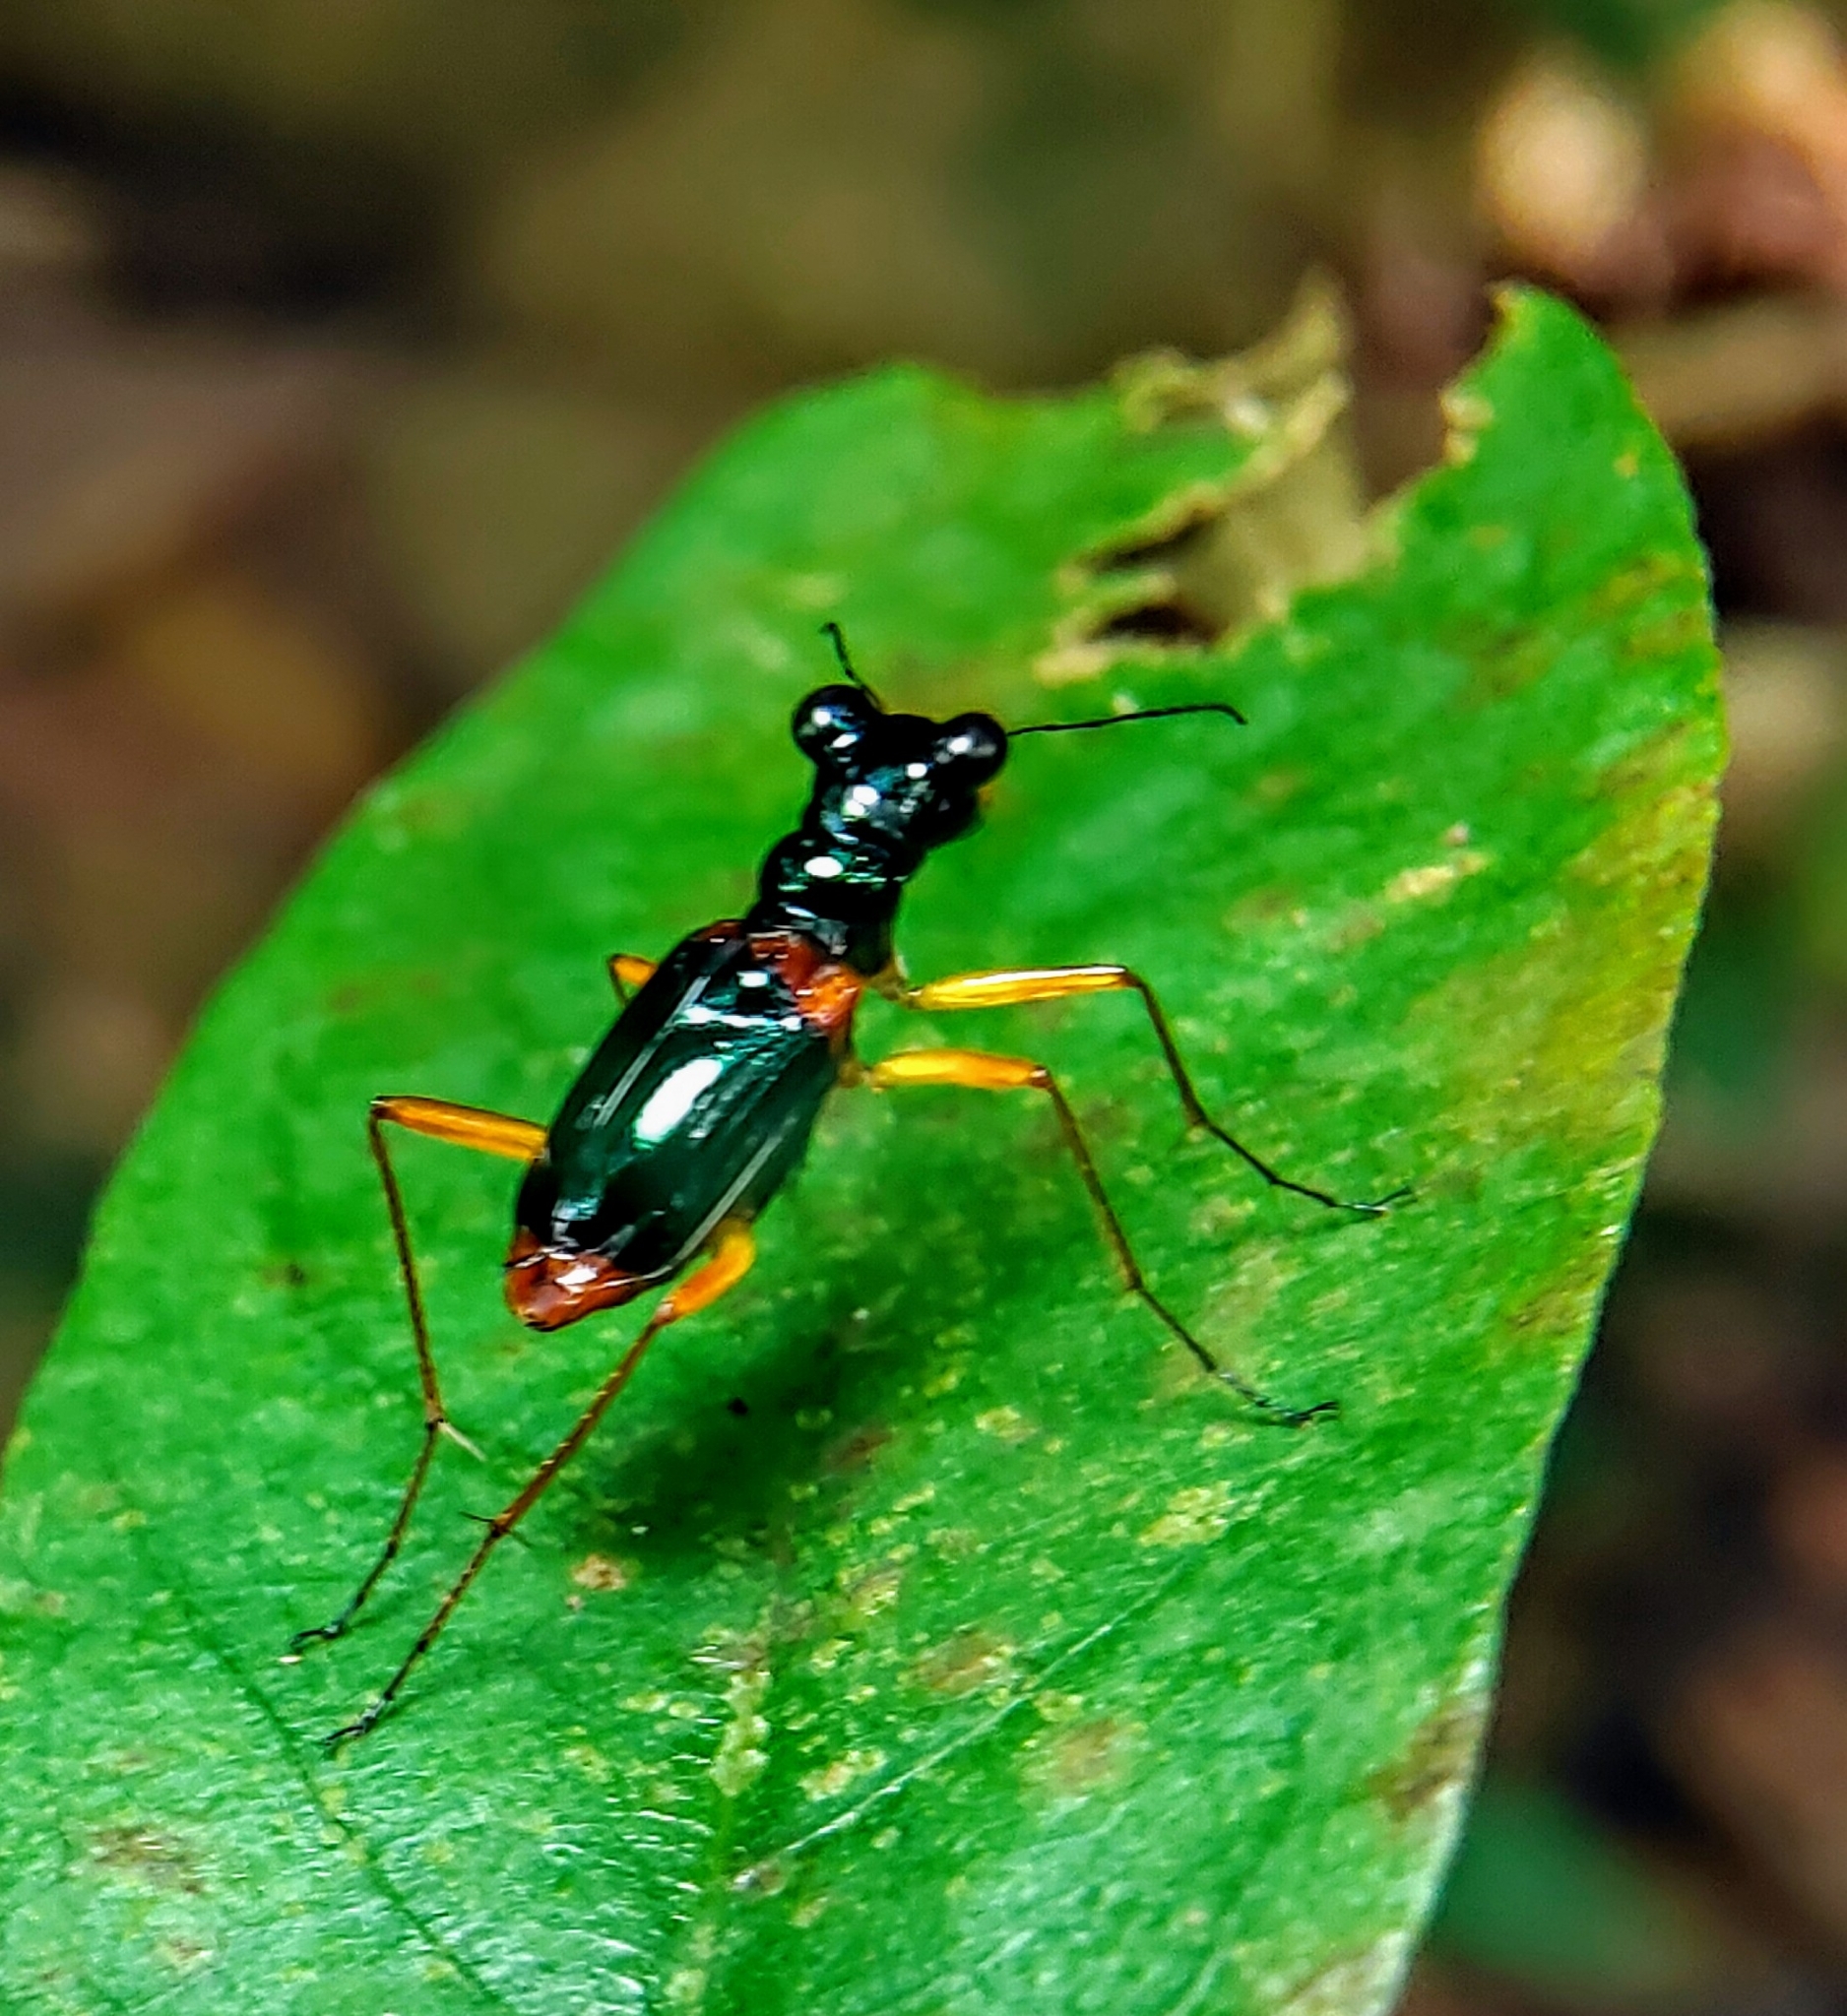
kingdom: Animalia
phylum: Arthropoda
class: Insecta
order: Coleoptera
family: Carabidae
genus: Therates
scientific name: Therates dimidiatus
